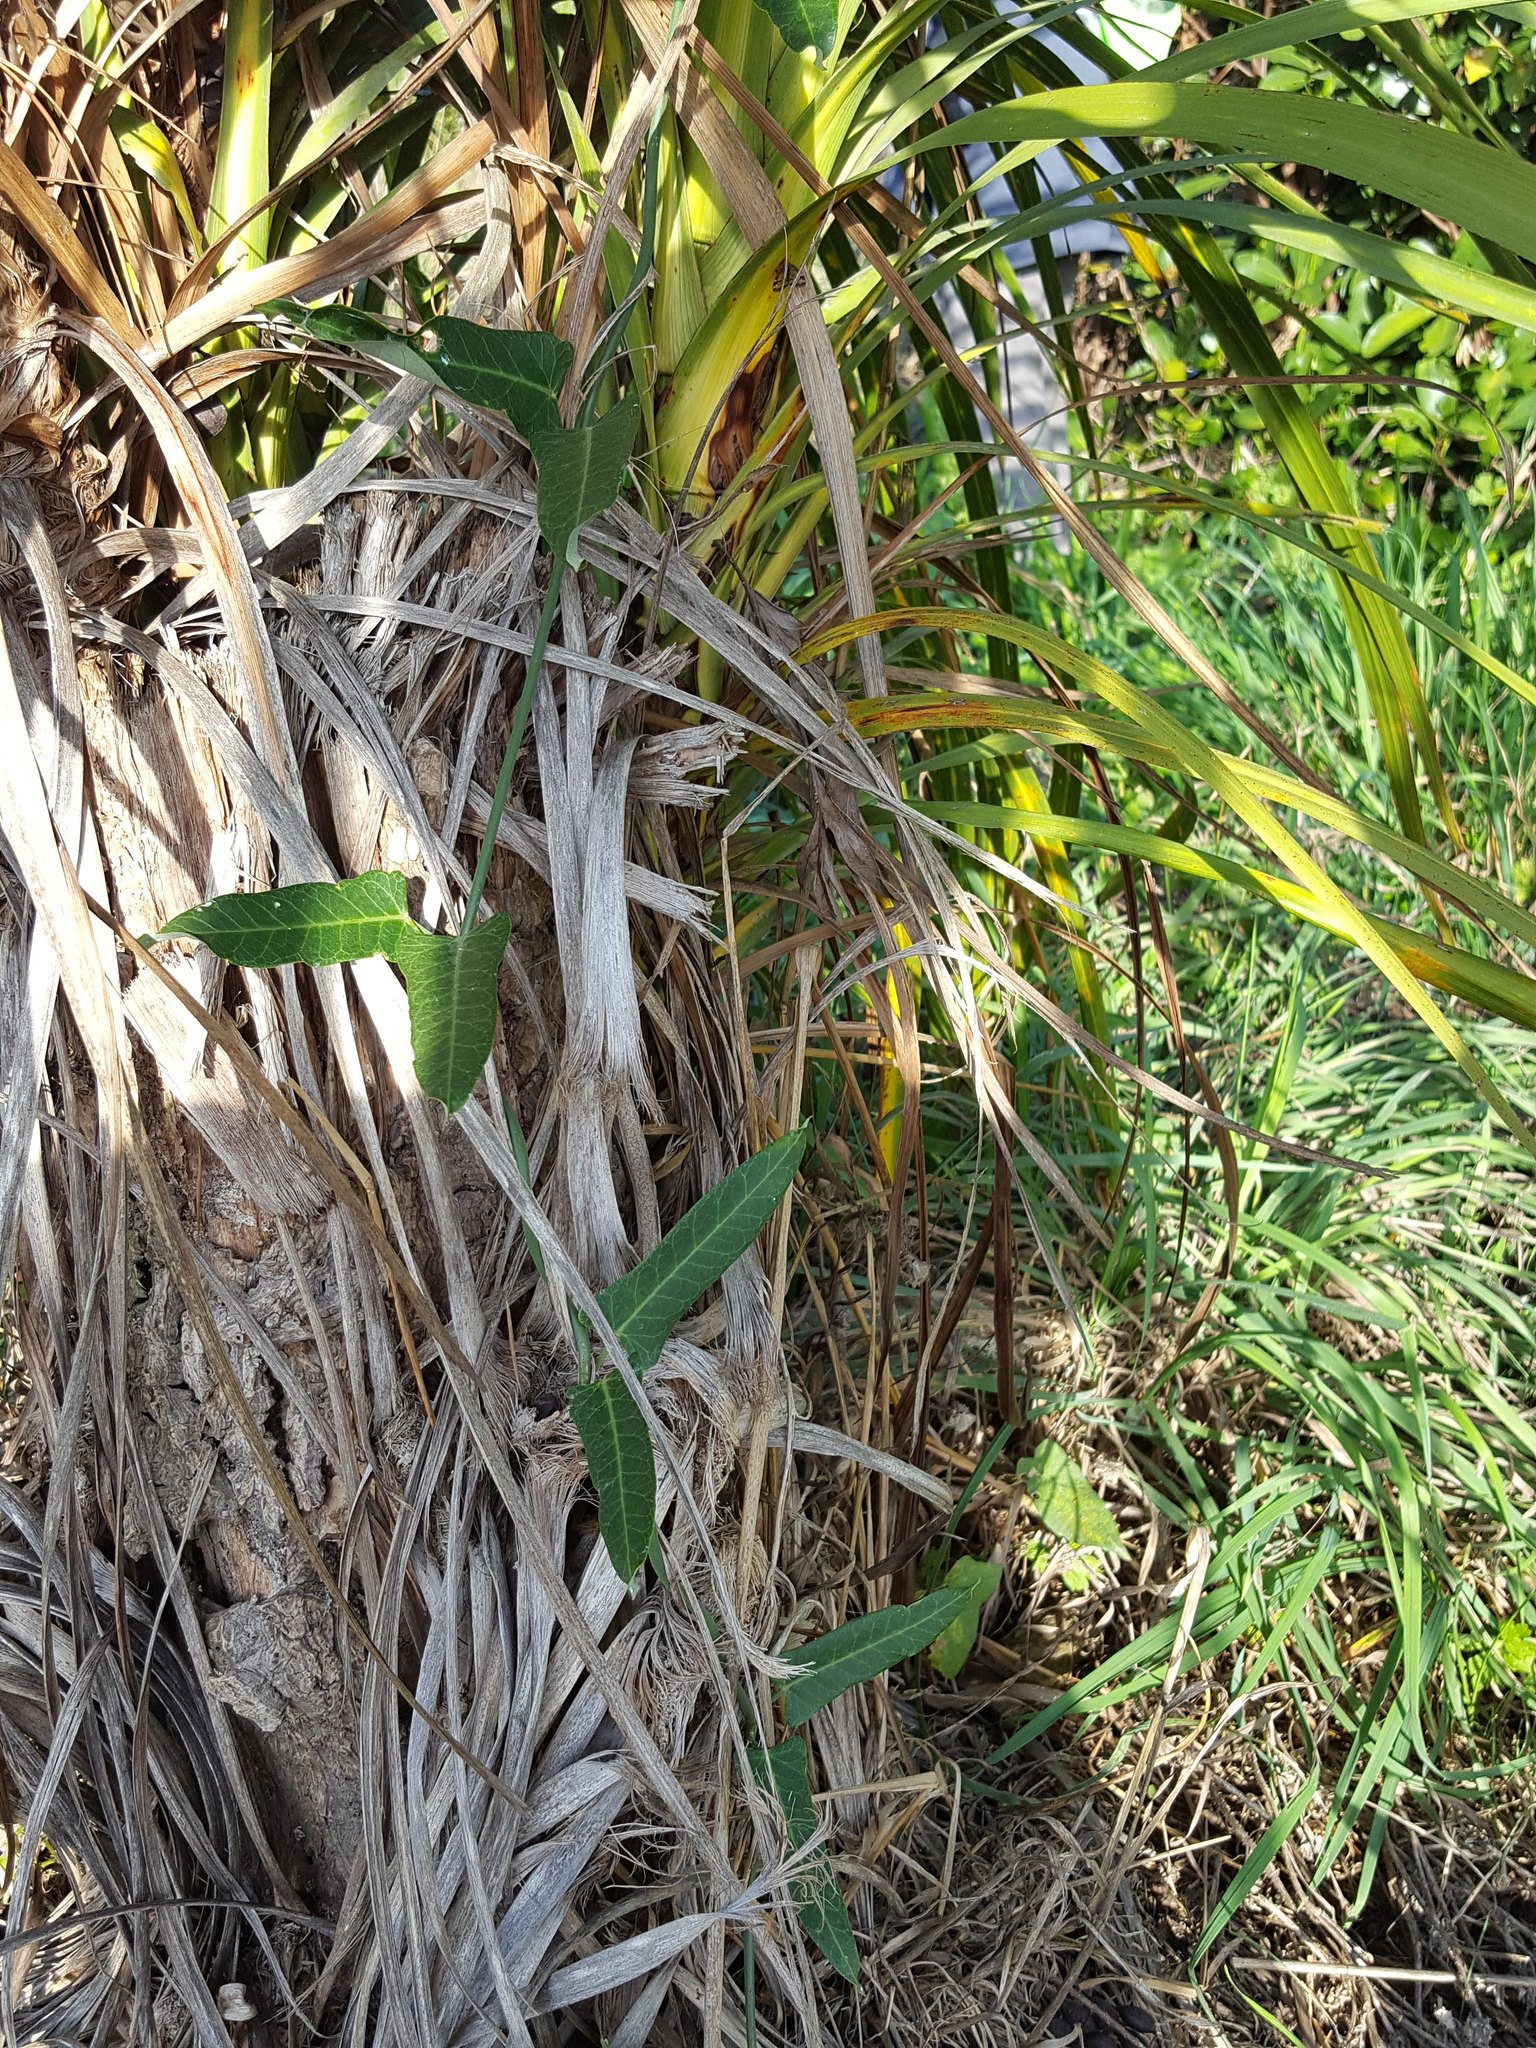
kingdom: Plantae
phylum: Tracheophyta
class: Magnoliopsida
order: Gentianales
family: Apocynaceae
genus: Araujia
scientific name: Araujia sericifera
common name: White bladderflower
